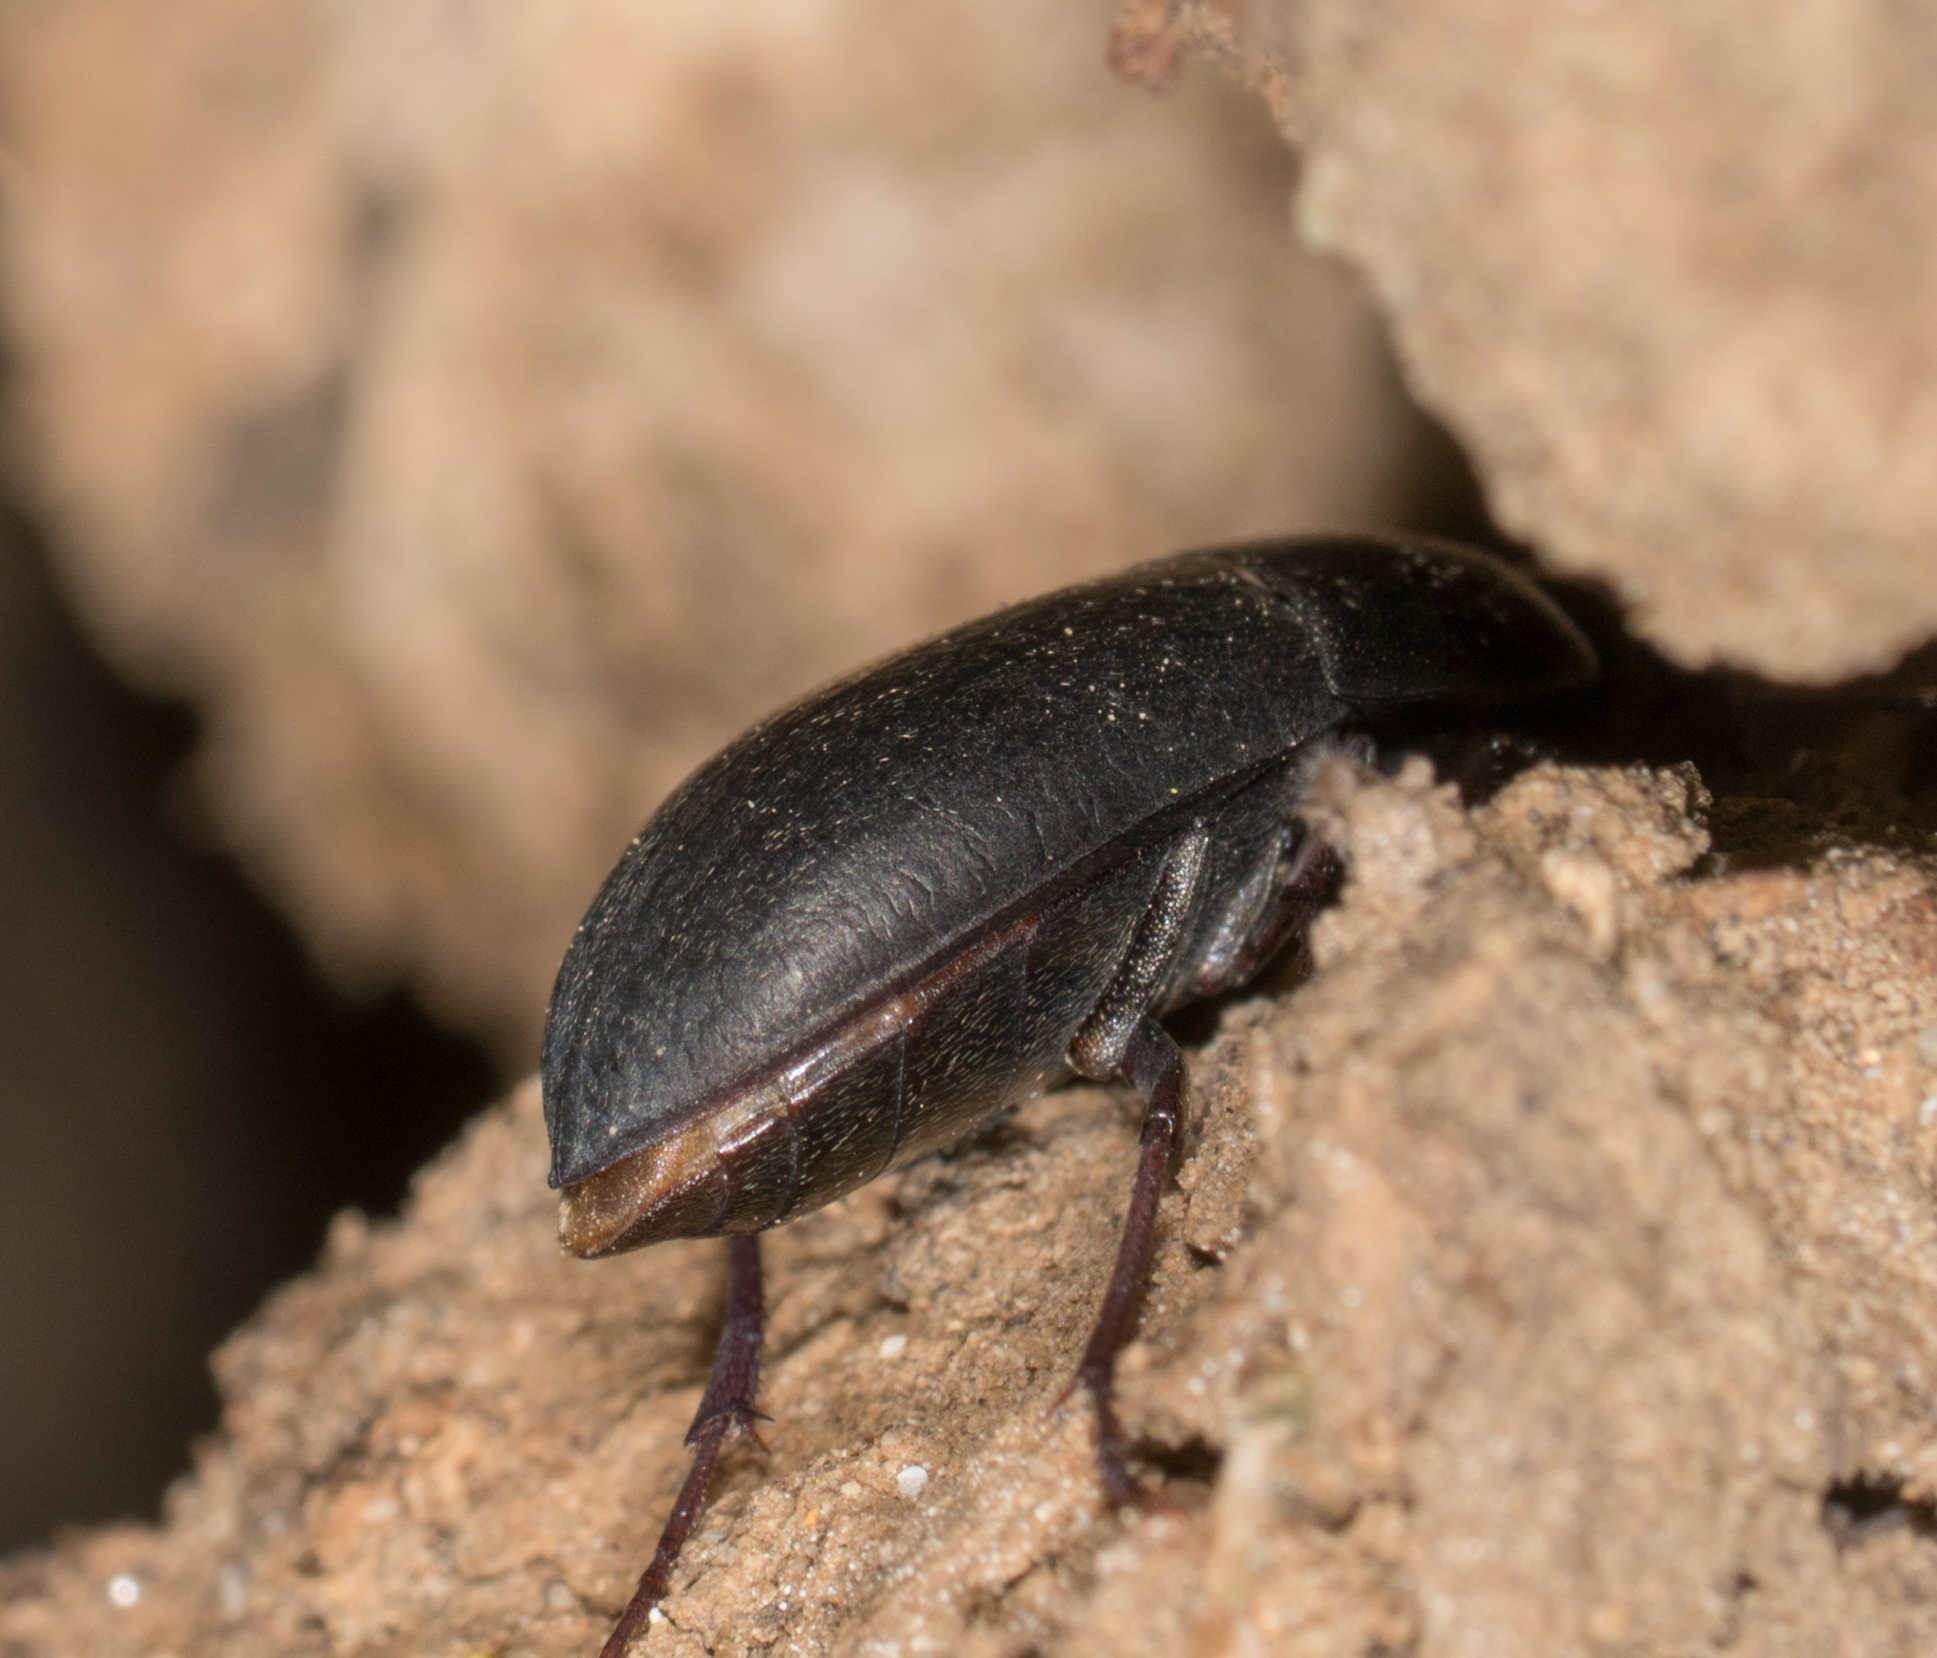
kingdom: Animalia
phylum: Arthropoda
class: Insecta
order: Coleoptera
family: Tenebrionidae
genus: Coniontis
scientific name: Coniontis
